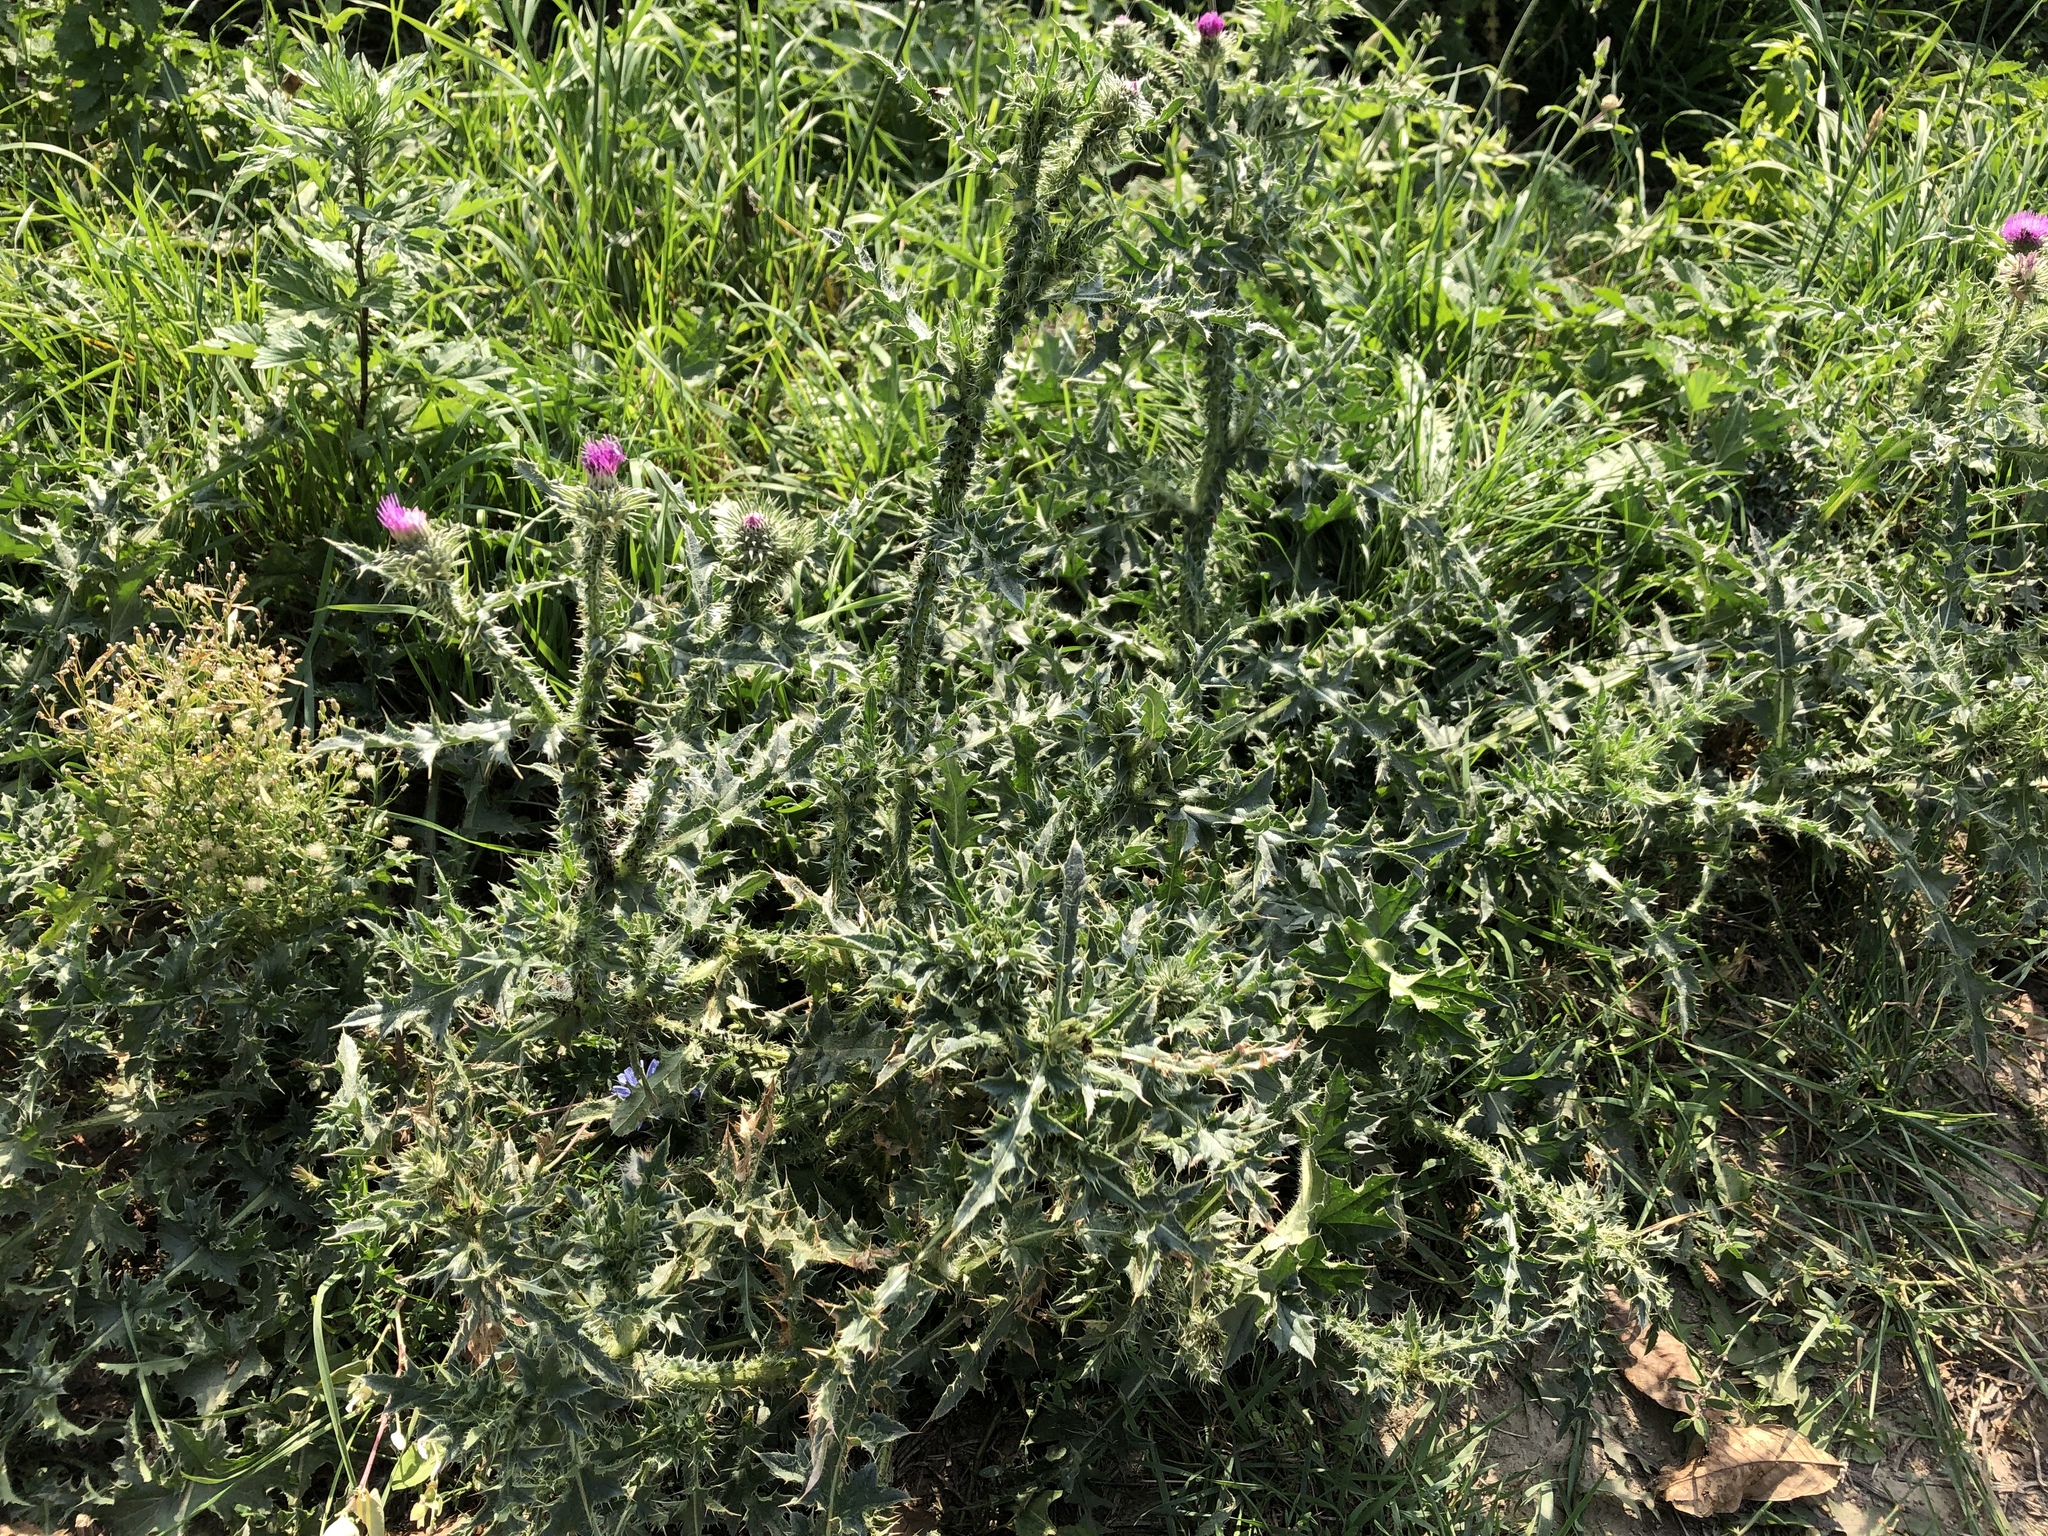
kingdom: Plantae
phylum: Tracheophyta
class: Magnoliopsida
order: Asterales
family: Asteraceae
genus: Carduus
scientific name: Carduus acanthoides
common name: Plumeless thistle
